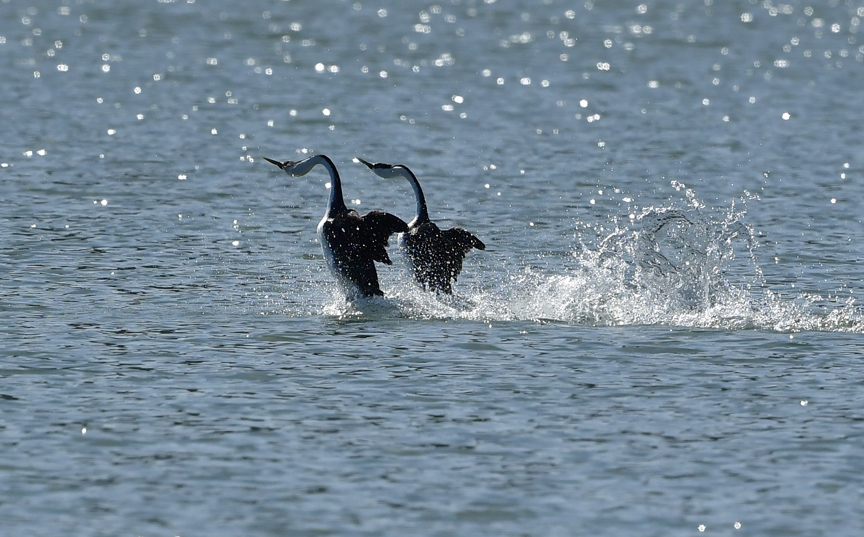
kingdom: Animalia
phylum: Chordata
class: Aves
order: Podicipediformes
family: Podicipedidae
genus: Aechmophorus
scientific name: Aechmophorus occidentalis
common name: Western grebe
